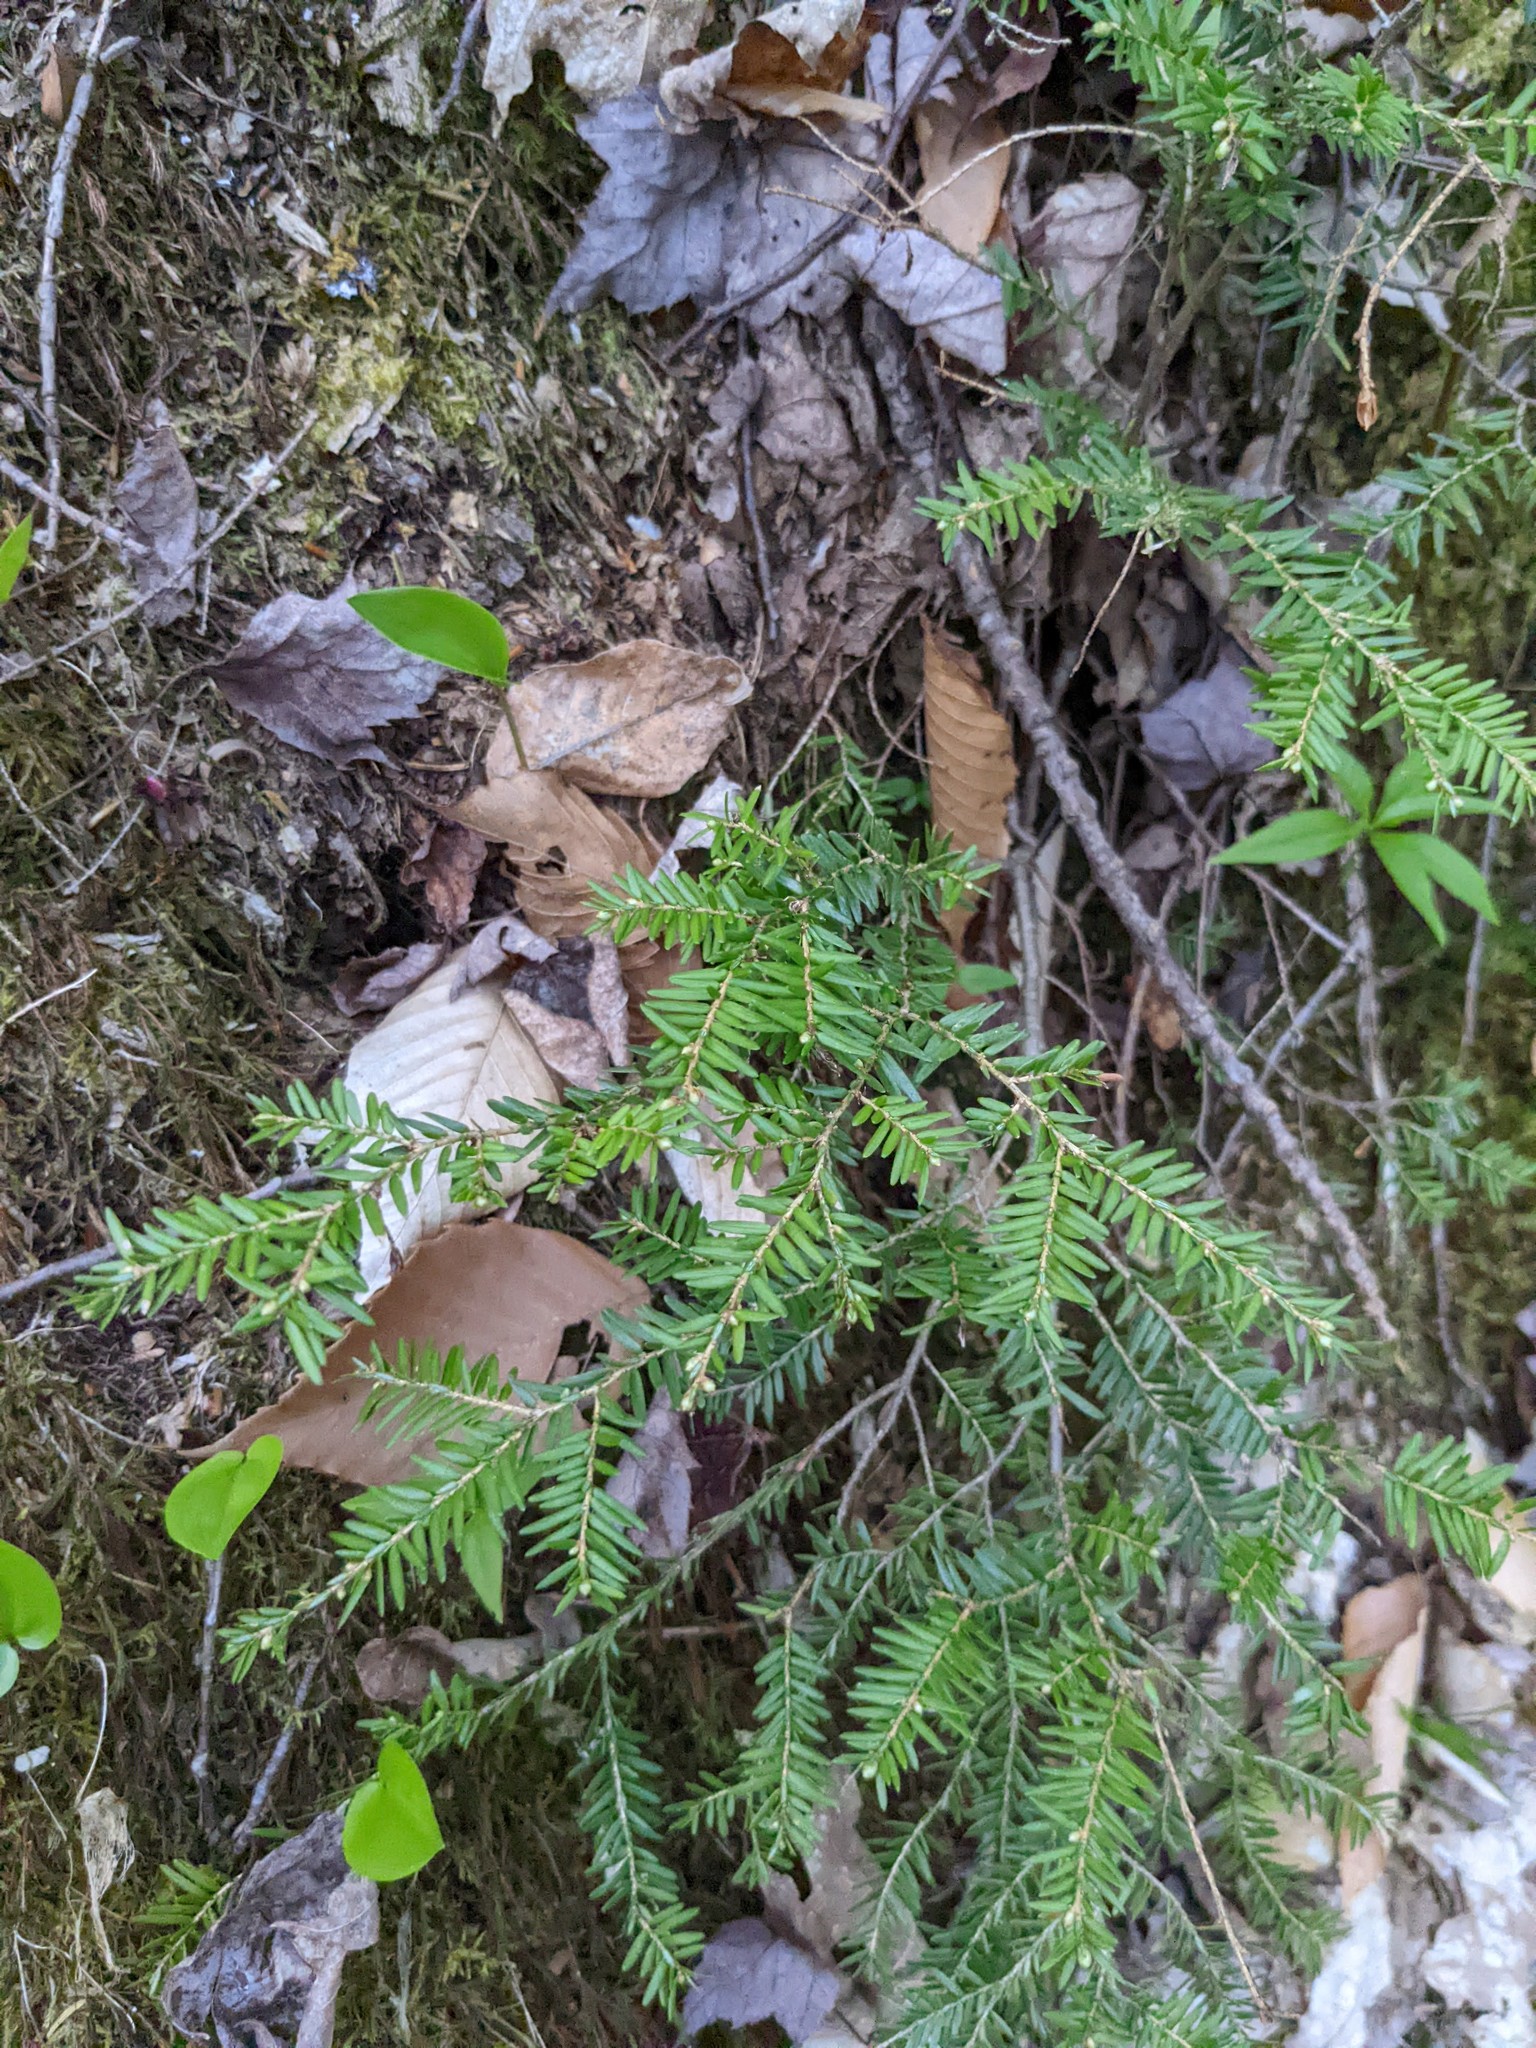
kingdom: Plantae
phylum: Tracheophyta
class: Pinopsida
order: Pinales
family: Pinaceae
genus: Tsuga
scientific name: Tsuga canadensis
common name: Eastern hemlock
